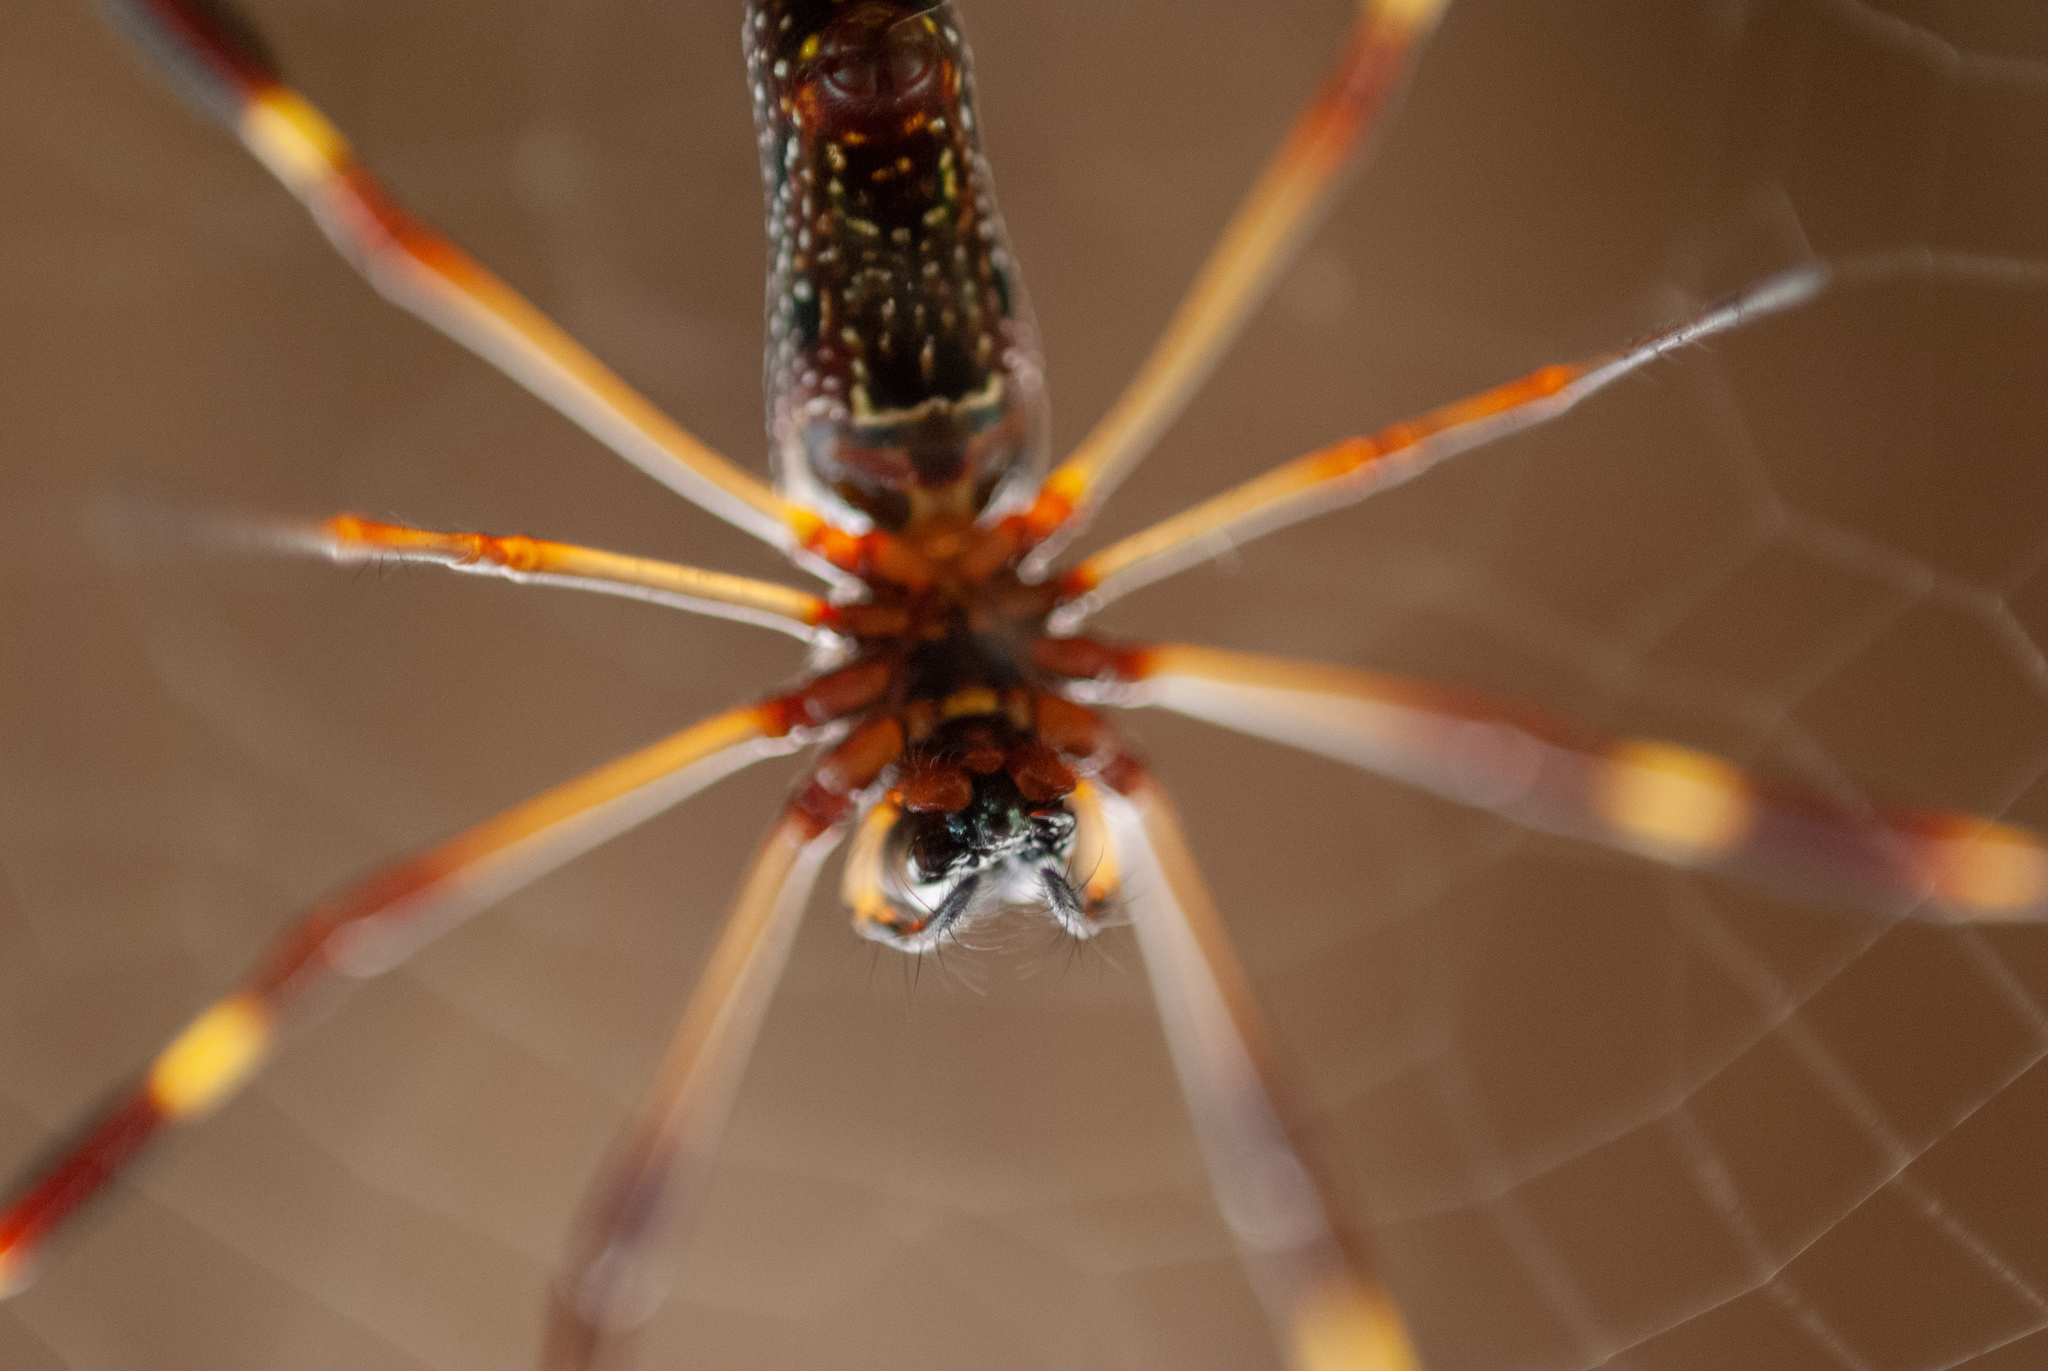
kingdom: Animalia
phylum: Arthropoda
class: Arachnida
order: Araneae
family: Araneidae
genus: Trichonephila
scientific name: Trichonephila clavipes
